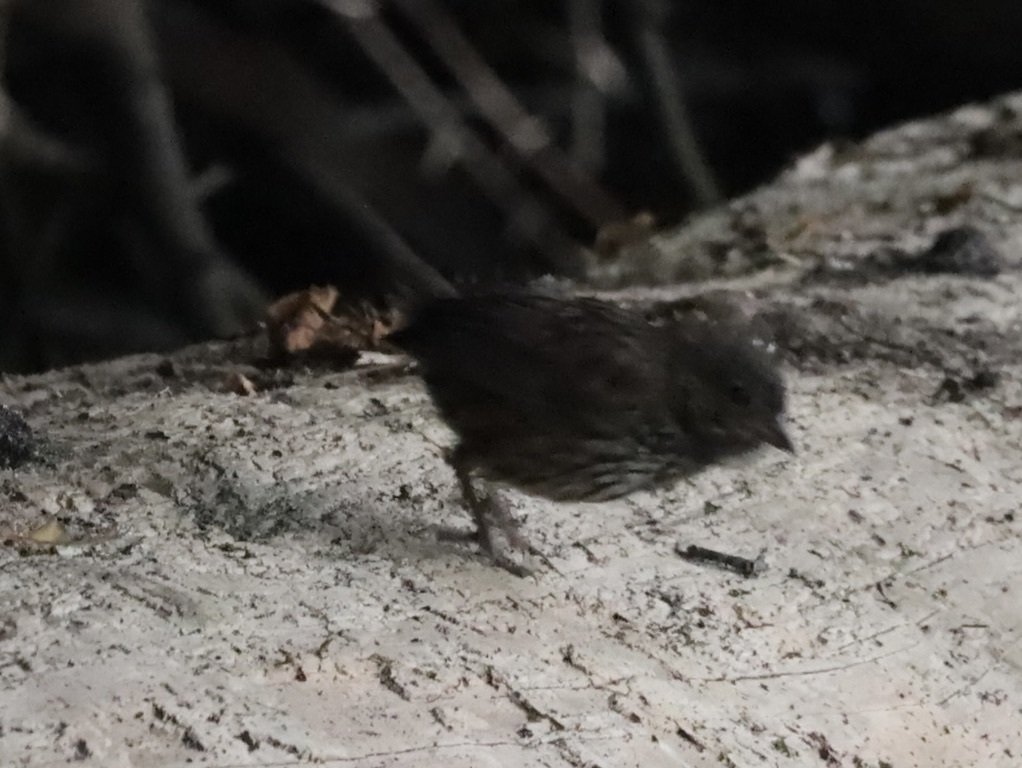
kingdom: Animalia
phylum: Chordata
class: Aves
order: Passeriformes
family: Passerellidae
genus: Melospiza
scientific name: Melospiza melodia
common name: Song sparrow
